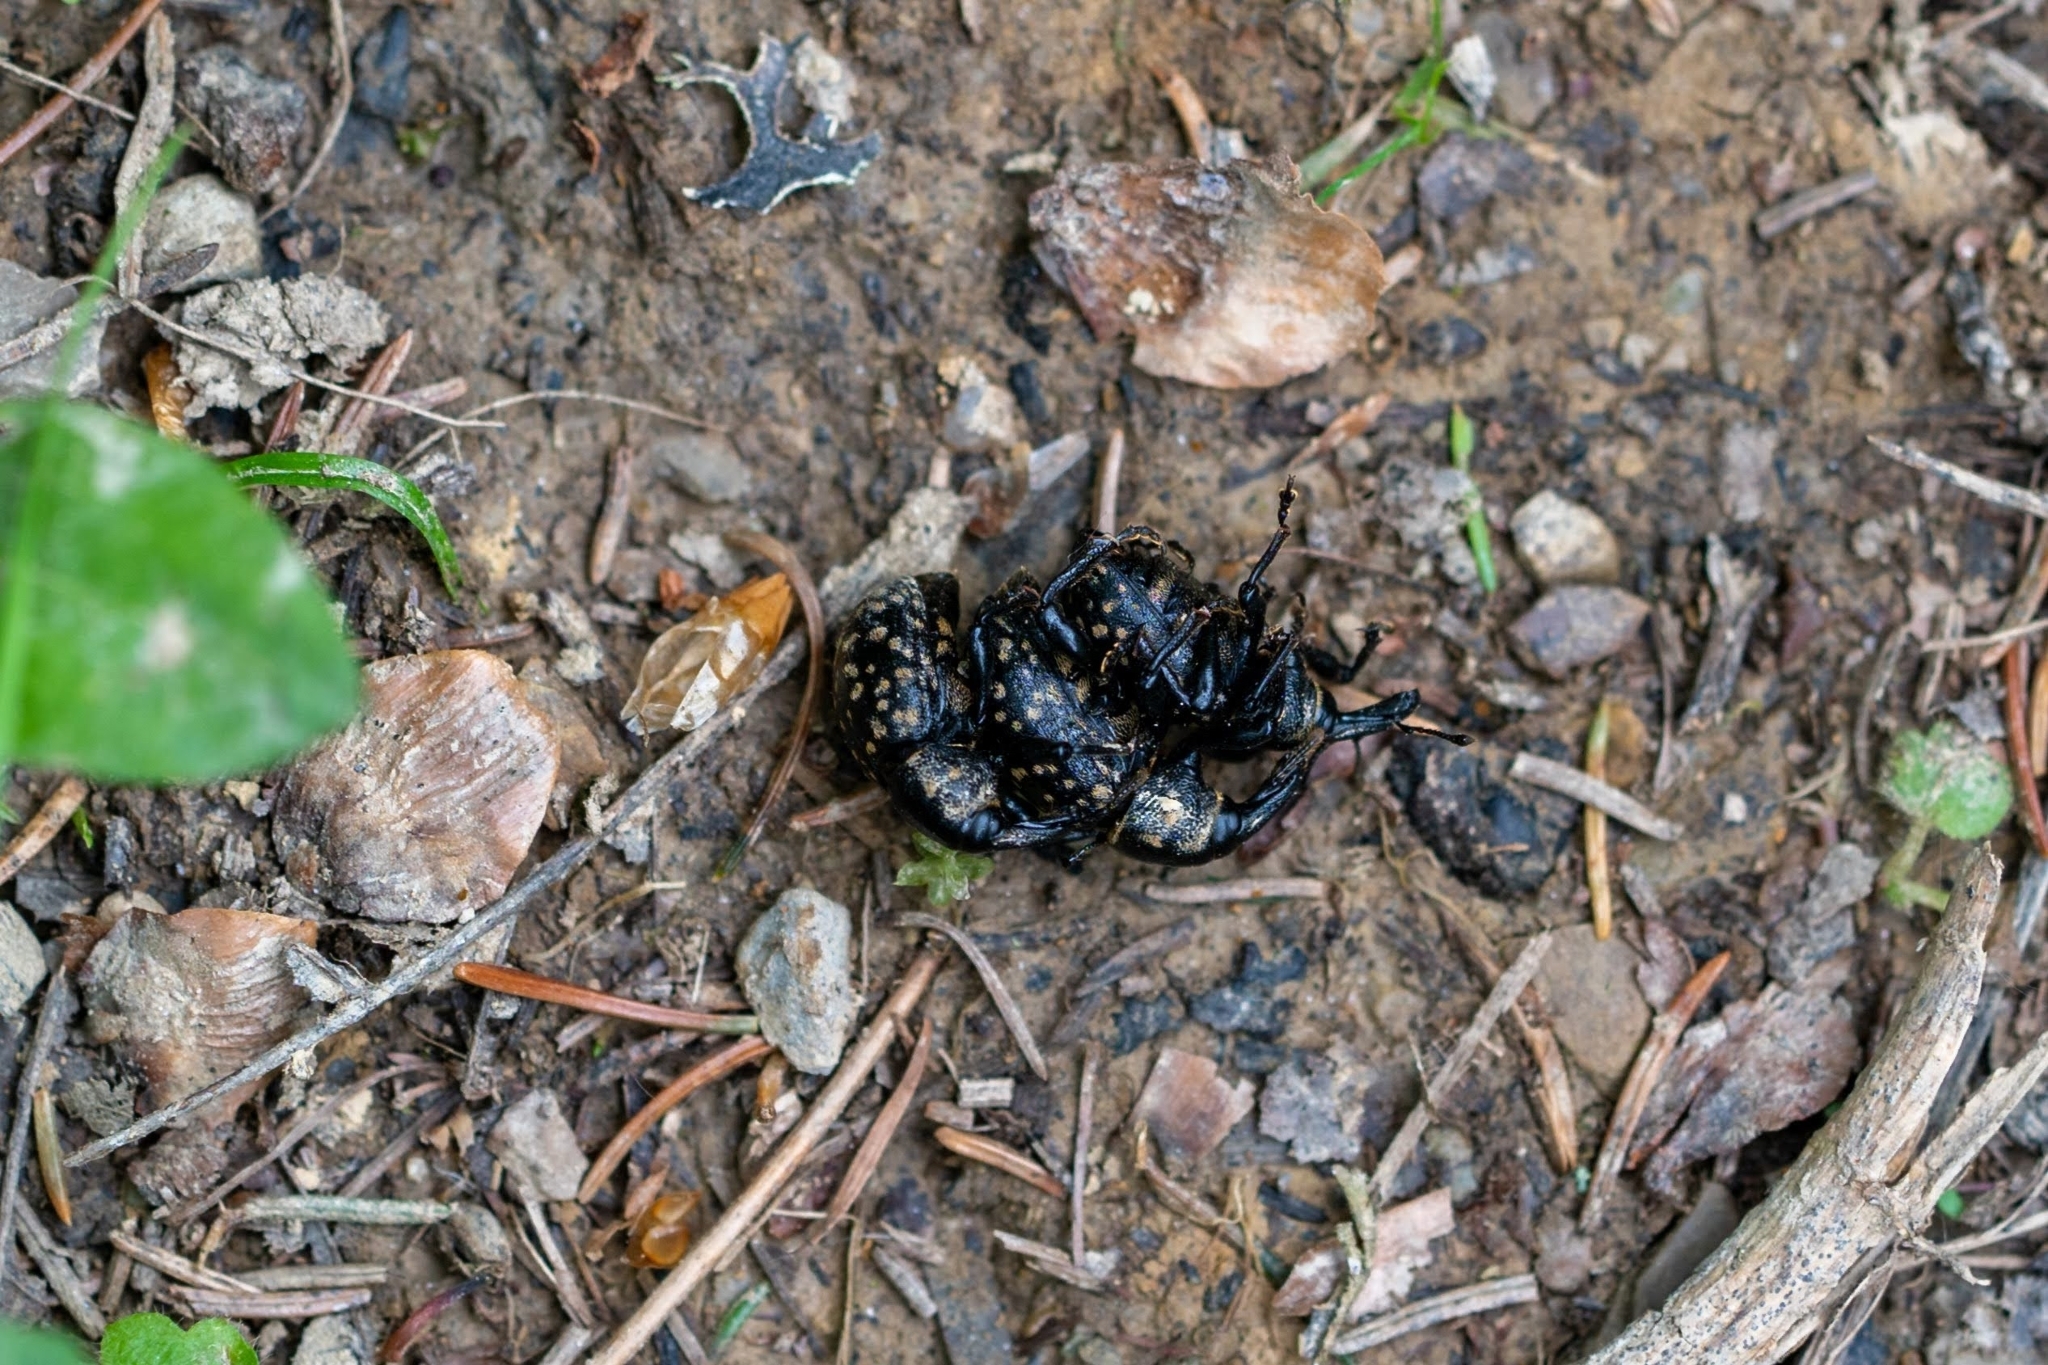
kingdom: Animalia
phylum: Arthropoda
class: Insecta
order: Coleoptera
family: Curculionidae
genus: Liparus
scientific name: Liparus germanus
